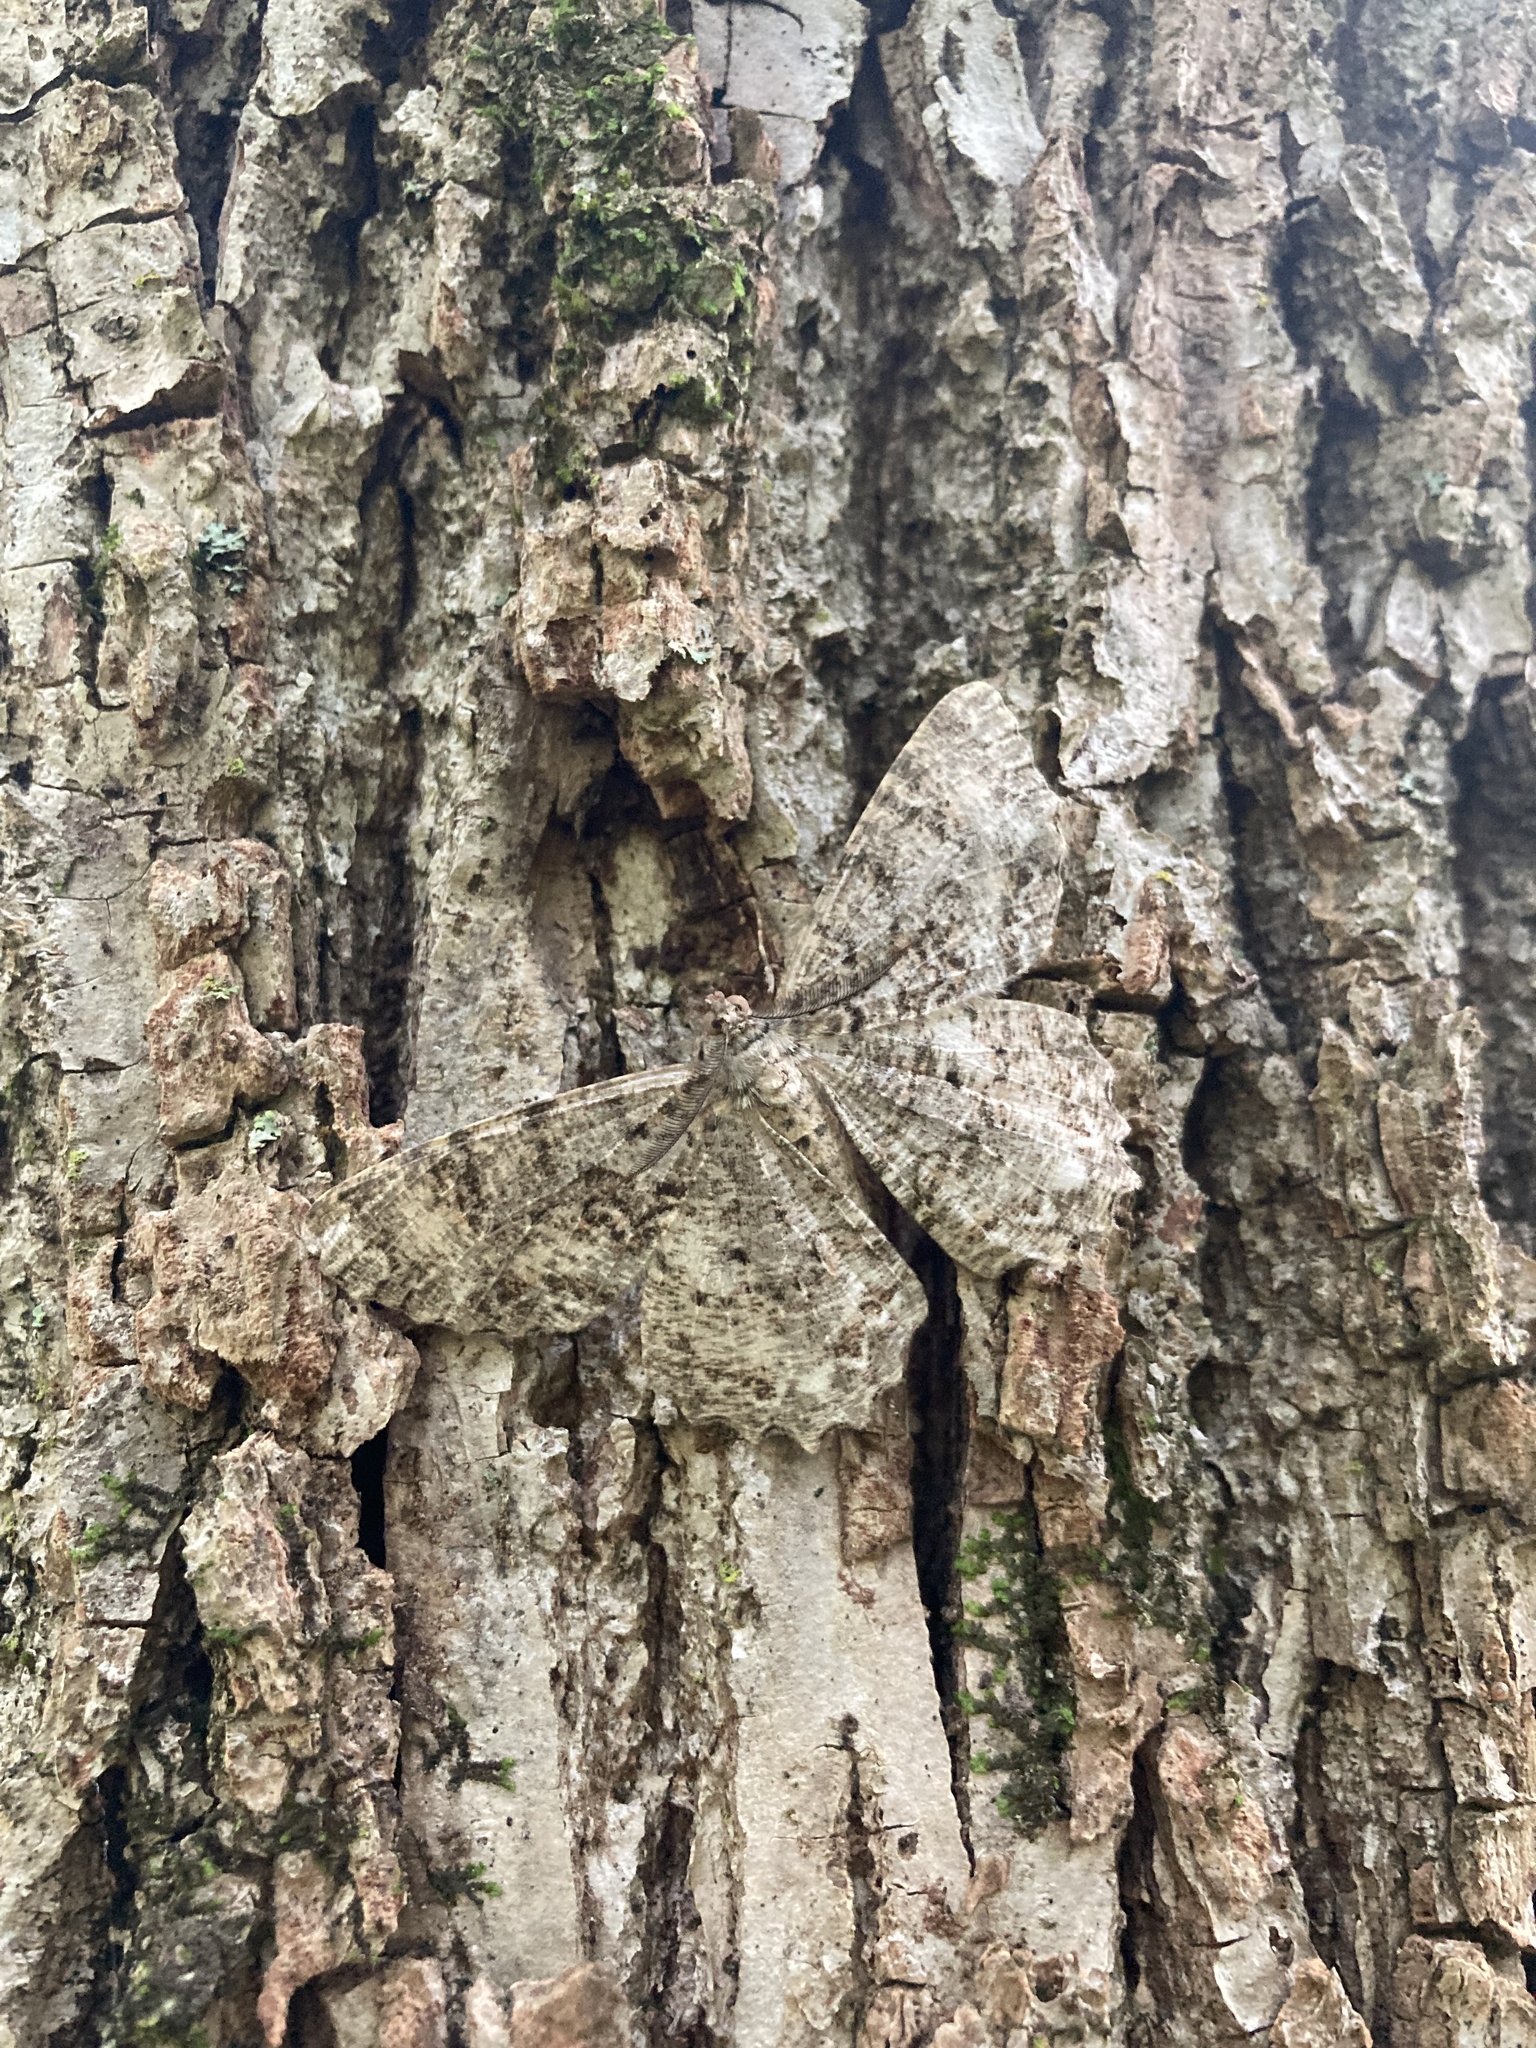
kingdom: Animalia
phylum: Arthropoda
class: Insecta
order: Lepidoptera
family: Geometridae
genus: Epimecis
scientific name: Epimecis hortaria
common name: Tulip-tree beauty
